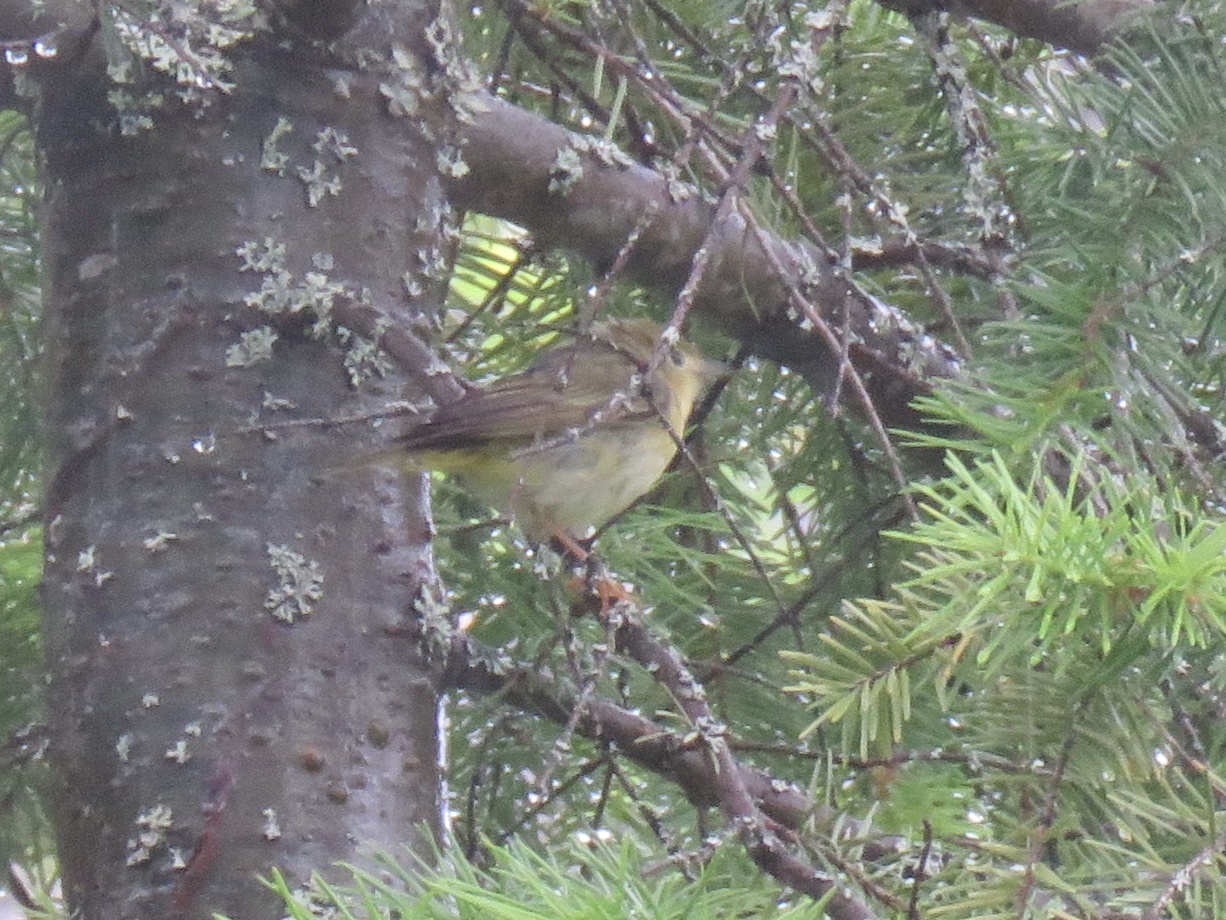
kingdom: Animalia
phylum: Chordata
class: Aves
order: Passeriformes
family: Parulidae
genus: Geothlypis
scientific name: Geothlypis trichas
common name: Common yellowthroat
